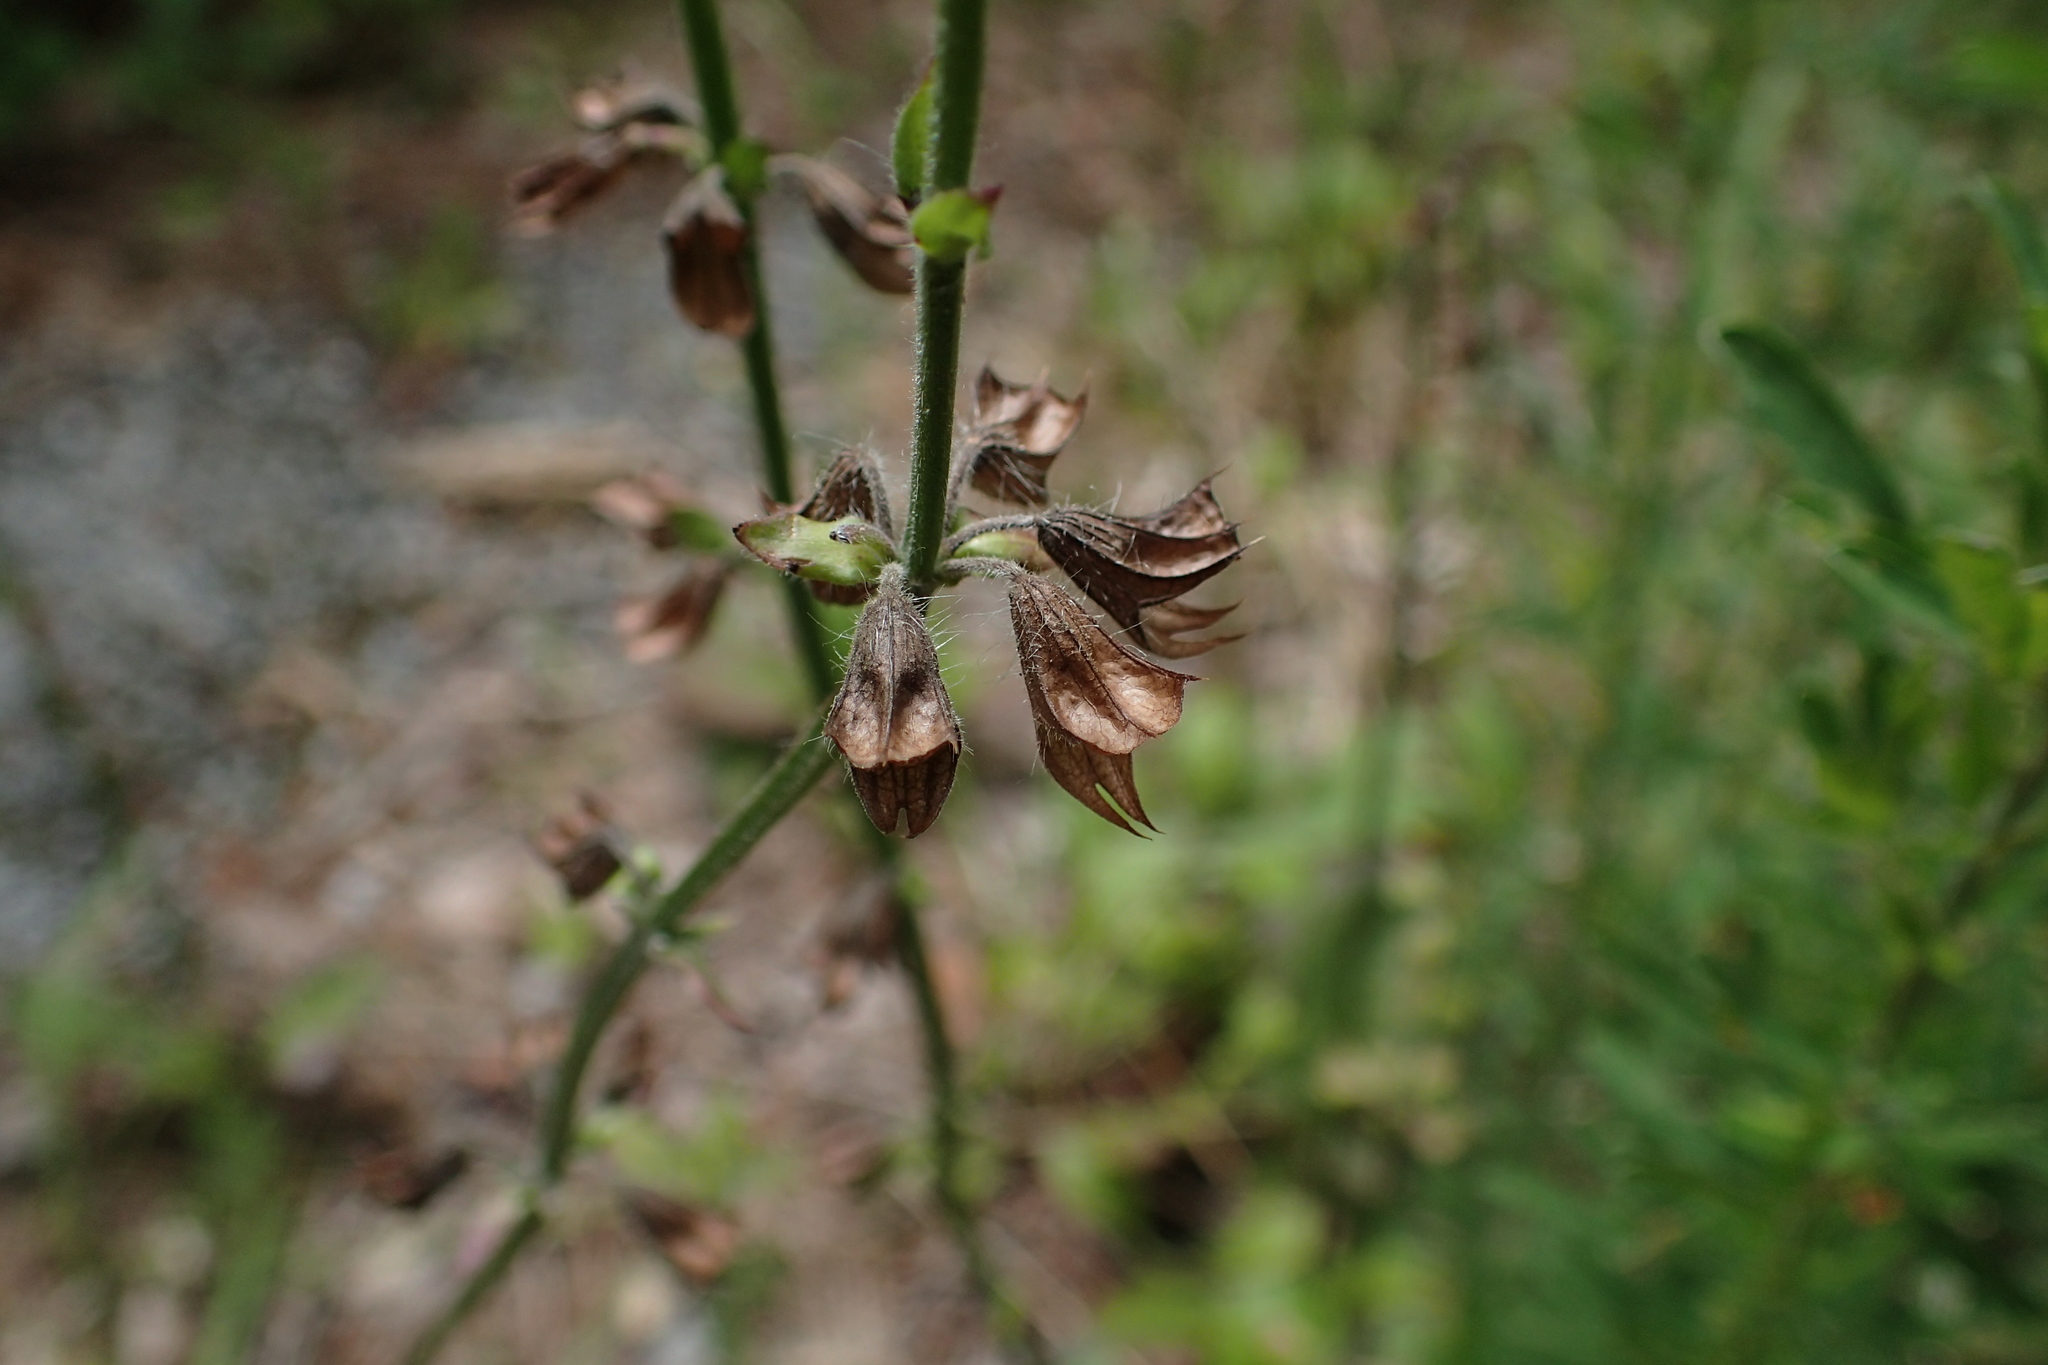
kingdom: Plantae
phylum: Tracheophyta
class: Magnoliopsida
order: Lamiales
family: Lamiaceae
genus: Salvia
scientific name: Salvia lyrata
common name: Cancerweed
